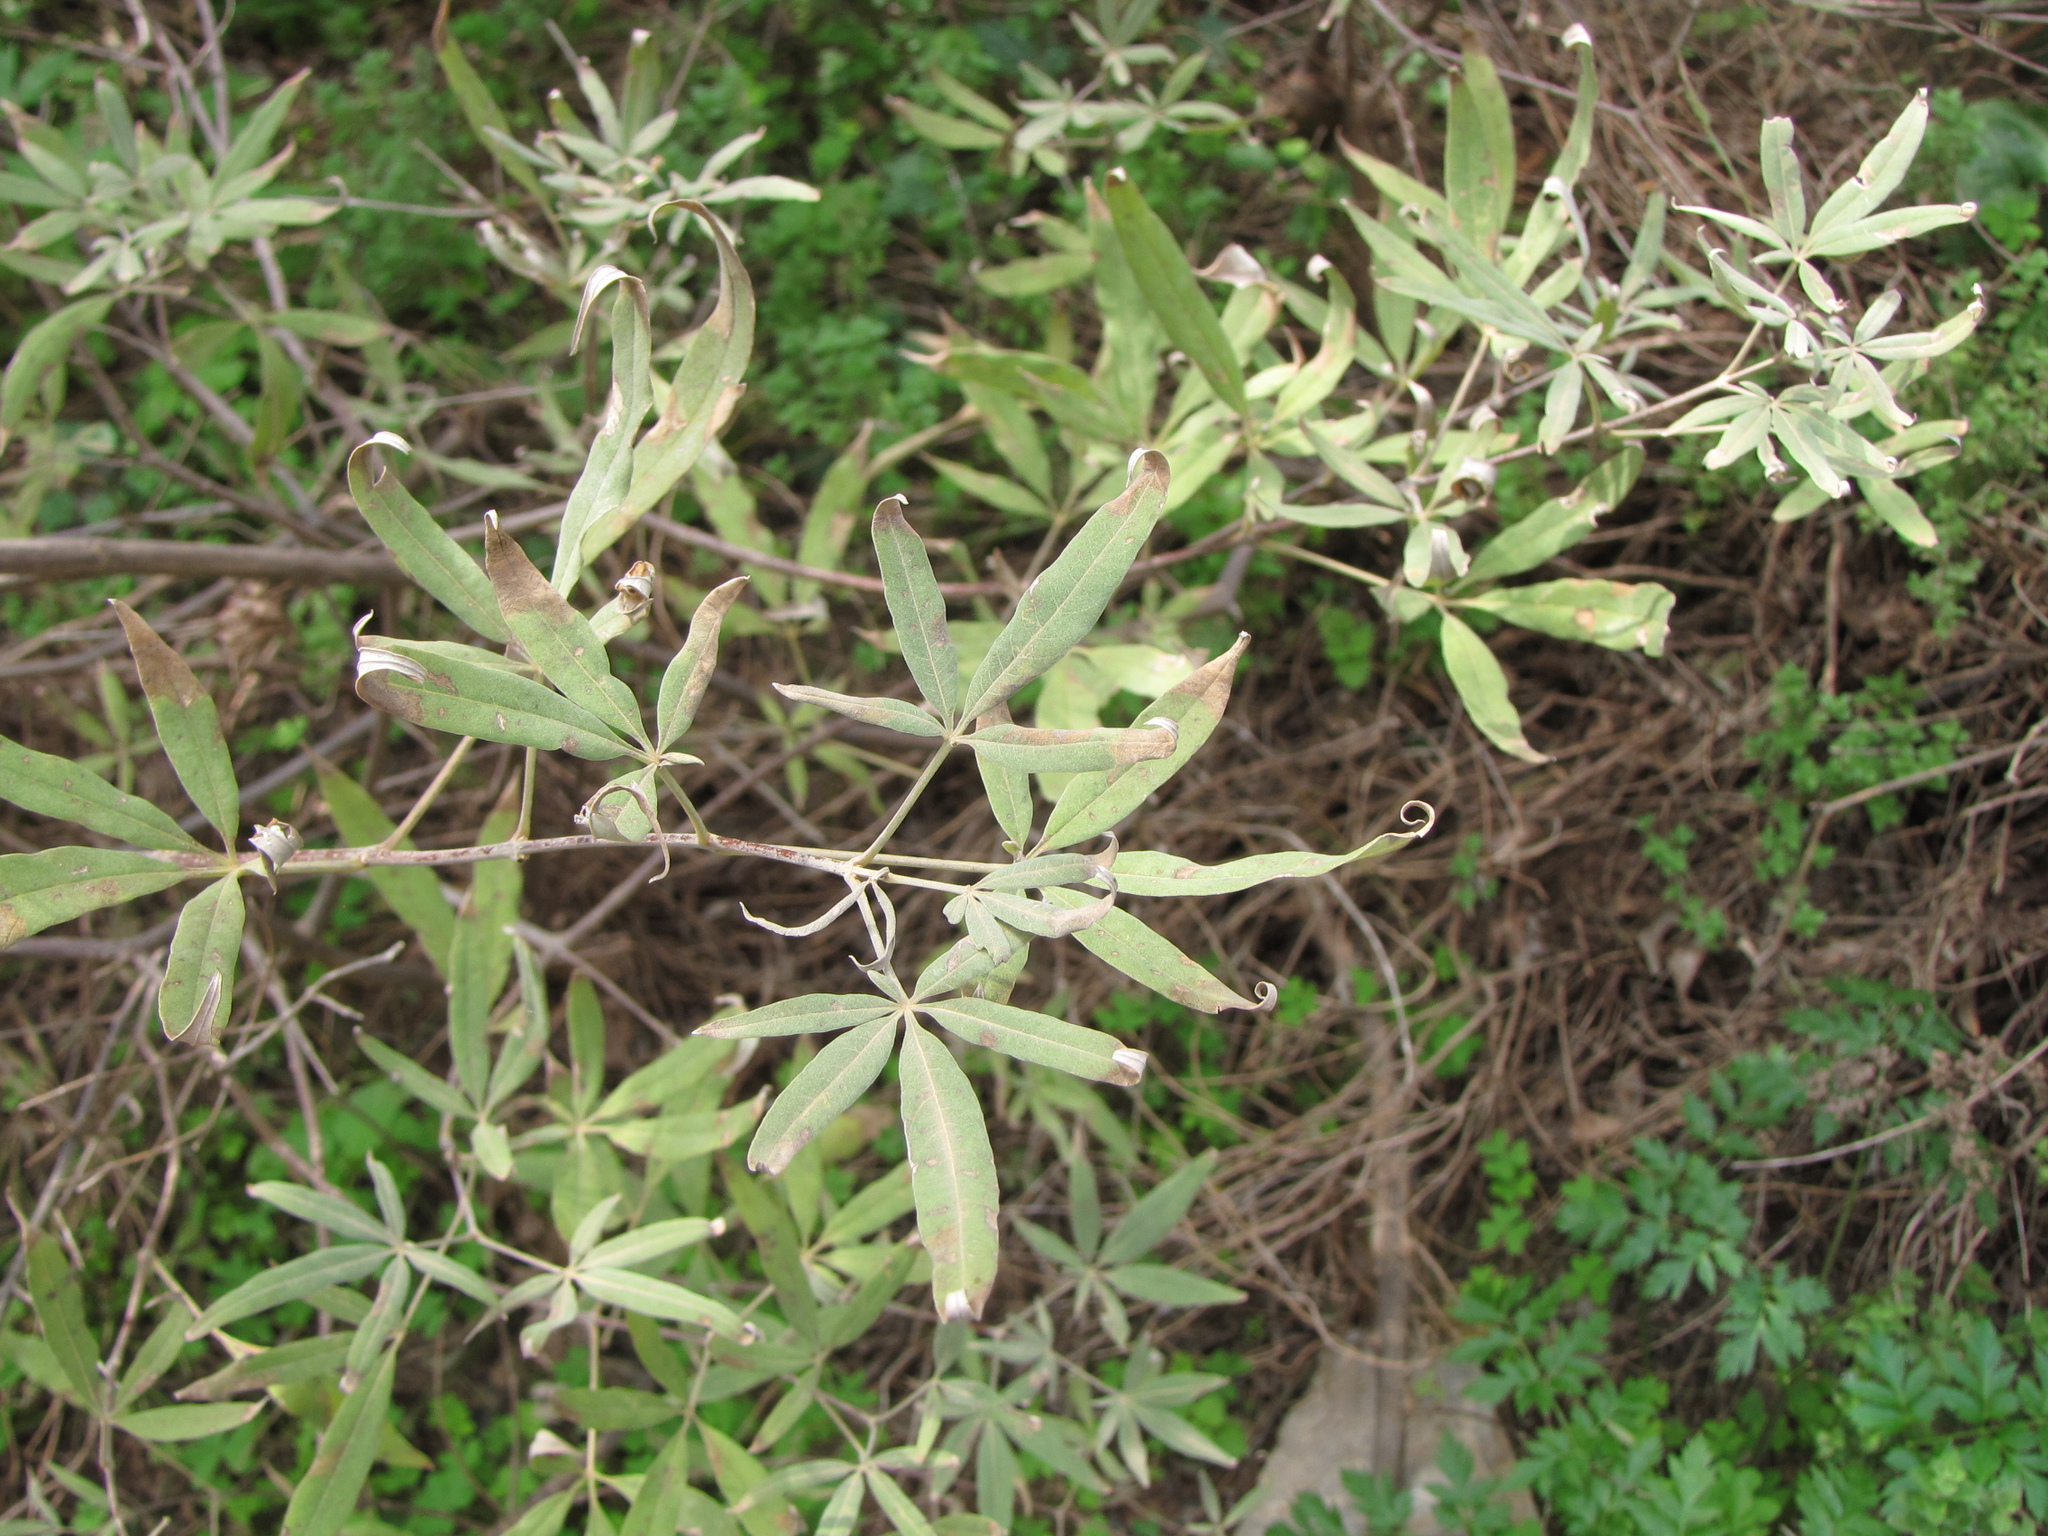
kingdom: Plantae
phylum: Tracheophyta
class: Magnoliopsida
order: Lamiales
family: Lamiaceae
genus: Vitex
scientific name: Vitex agnus-castus
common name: Chasteberry
